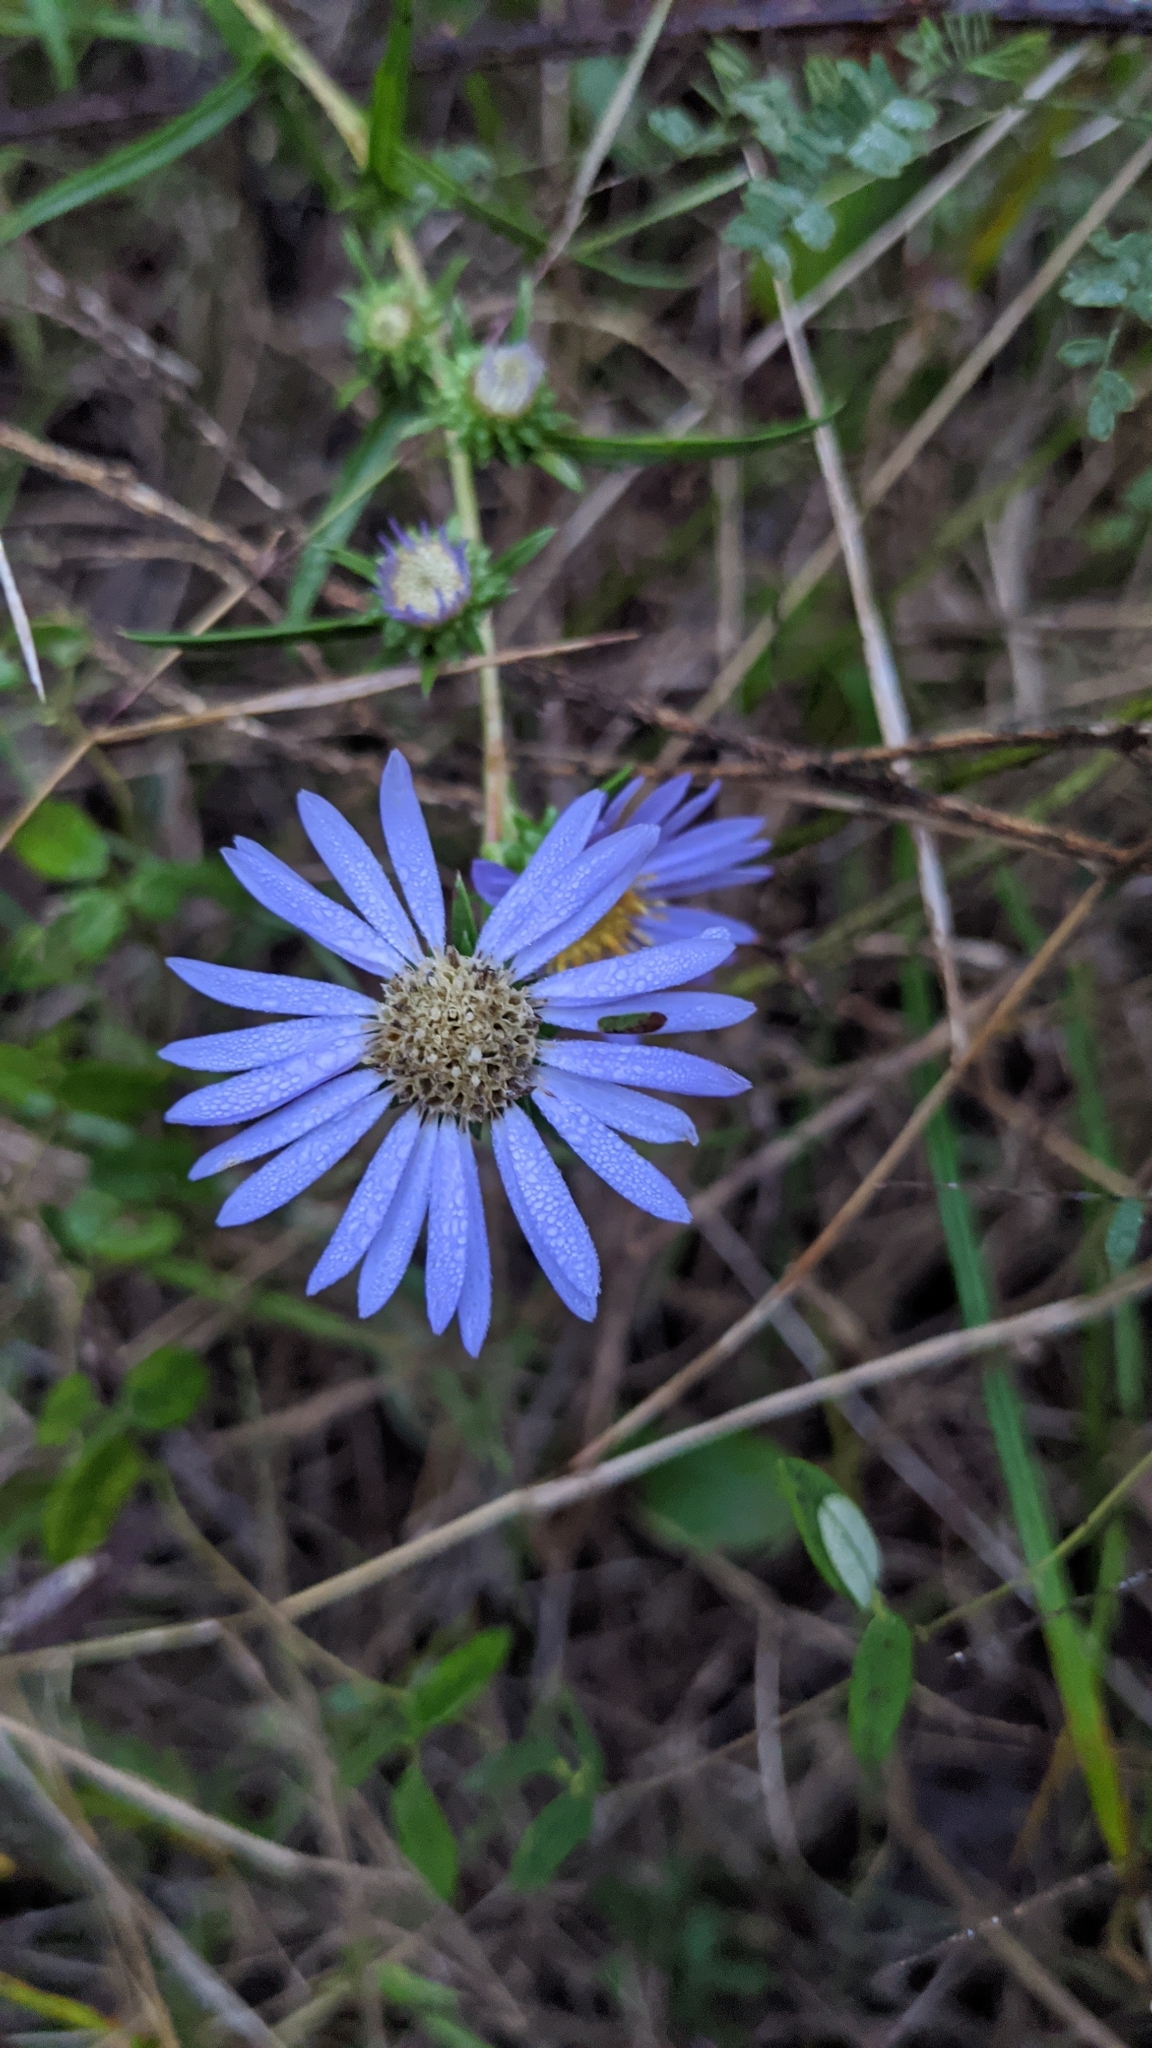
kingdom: Plantae
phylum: Tracheophyta
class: Magnoliopsida
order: Asterales
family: Asteraceae
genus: Eurybia
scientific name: Eurybia hemispherica
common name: Showy aster
